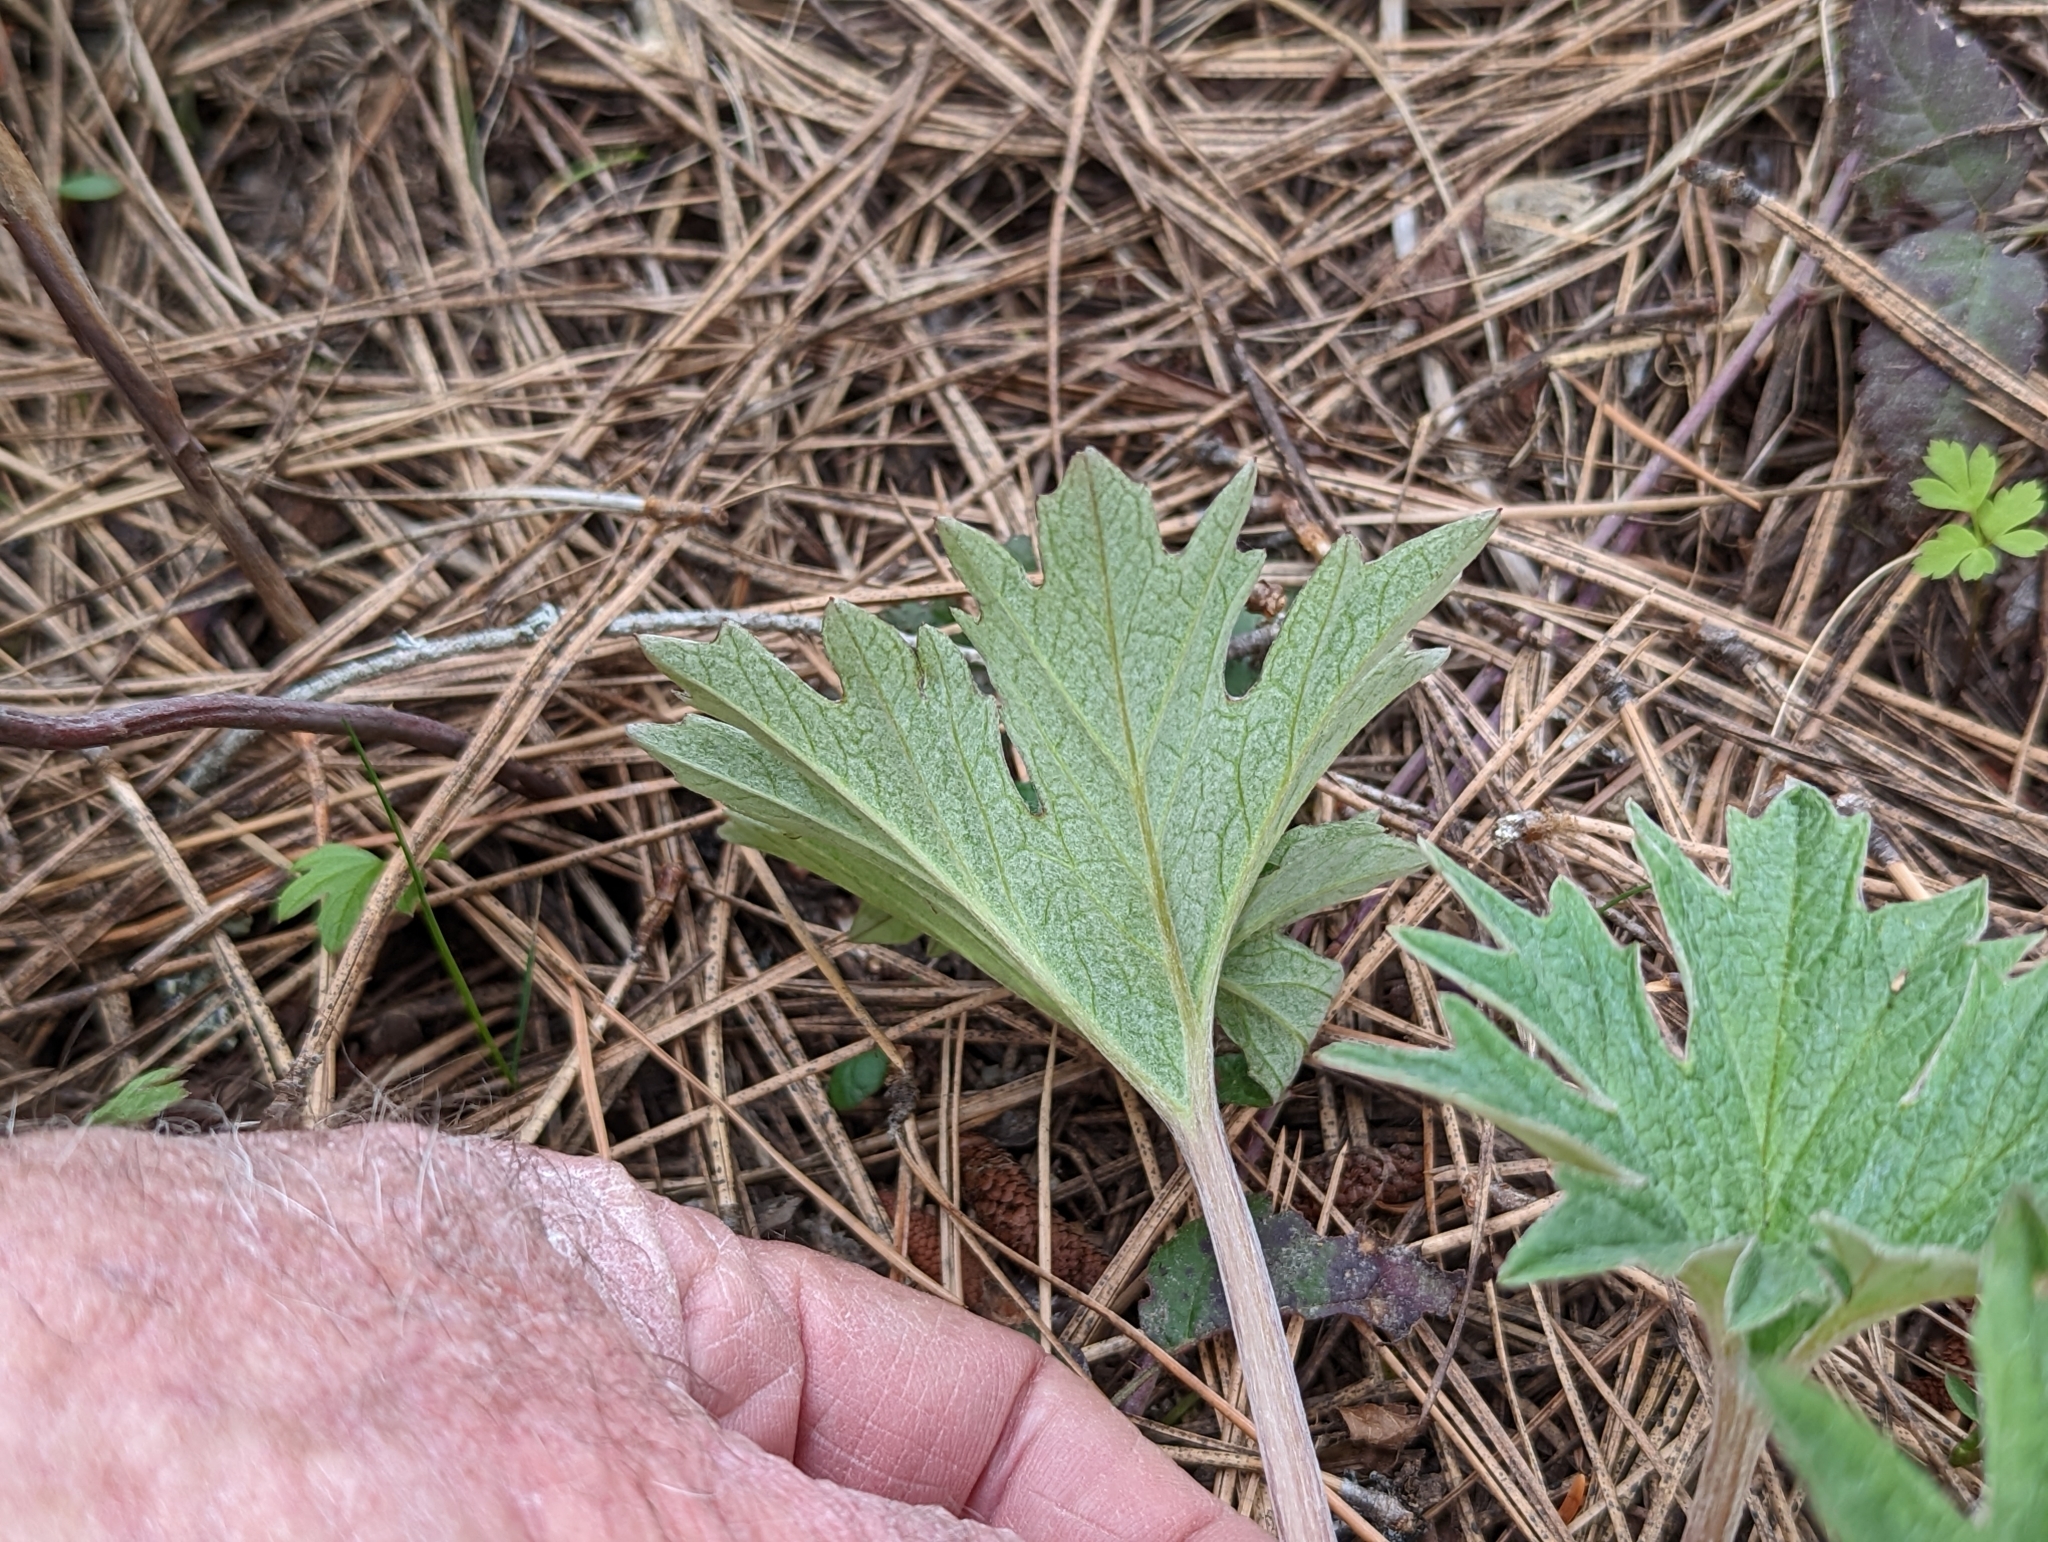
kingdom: Plantae
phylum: Tracheophyta
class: Magnoliopsida
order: Asterales
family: Asteraceae
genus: Cacaliopsis
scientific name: Cacaliopsis nardosmia
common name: Silvercrown
